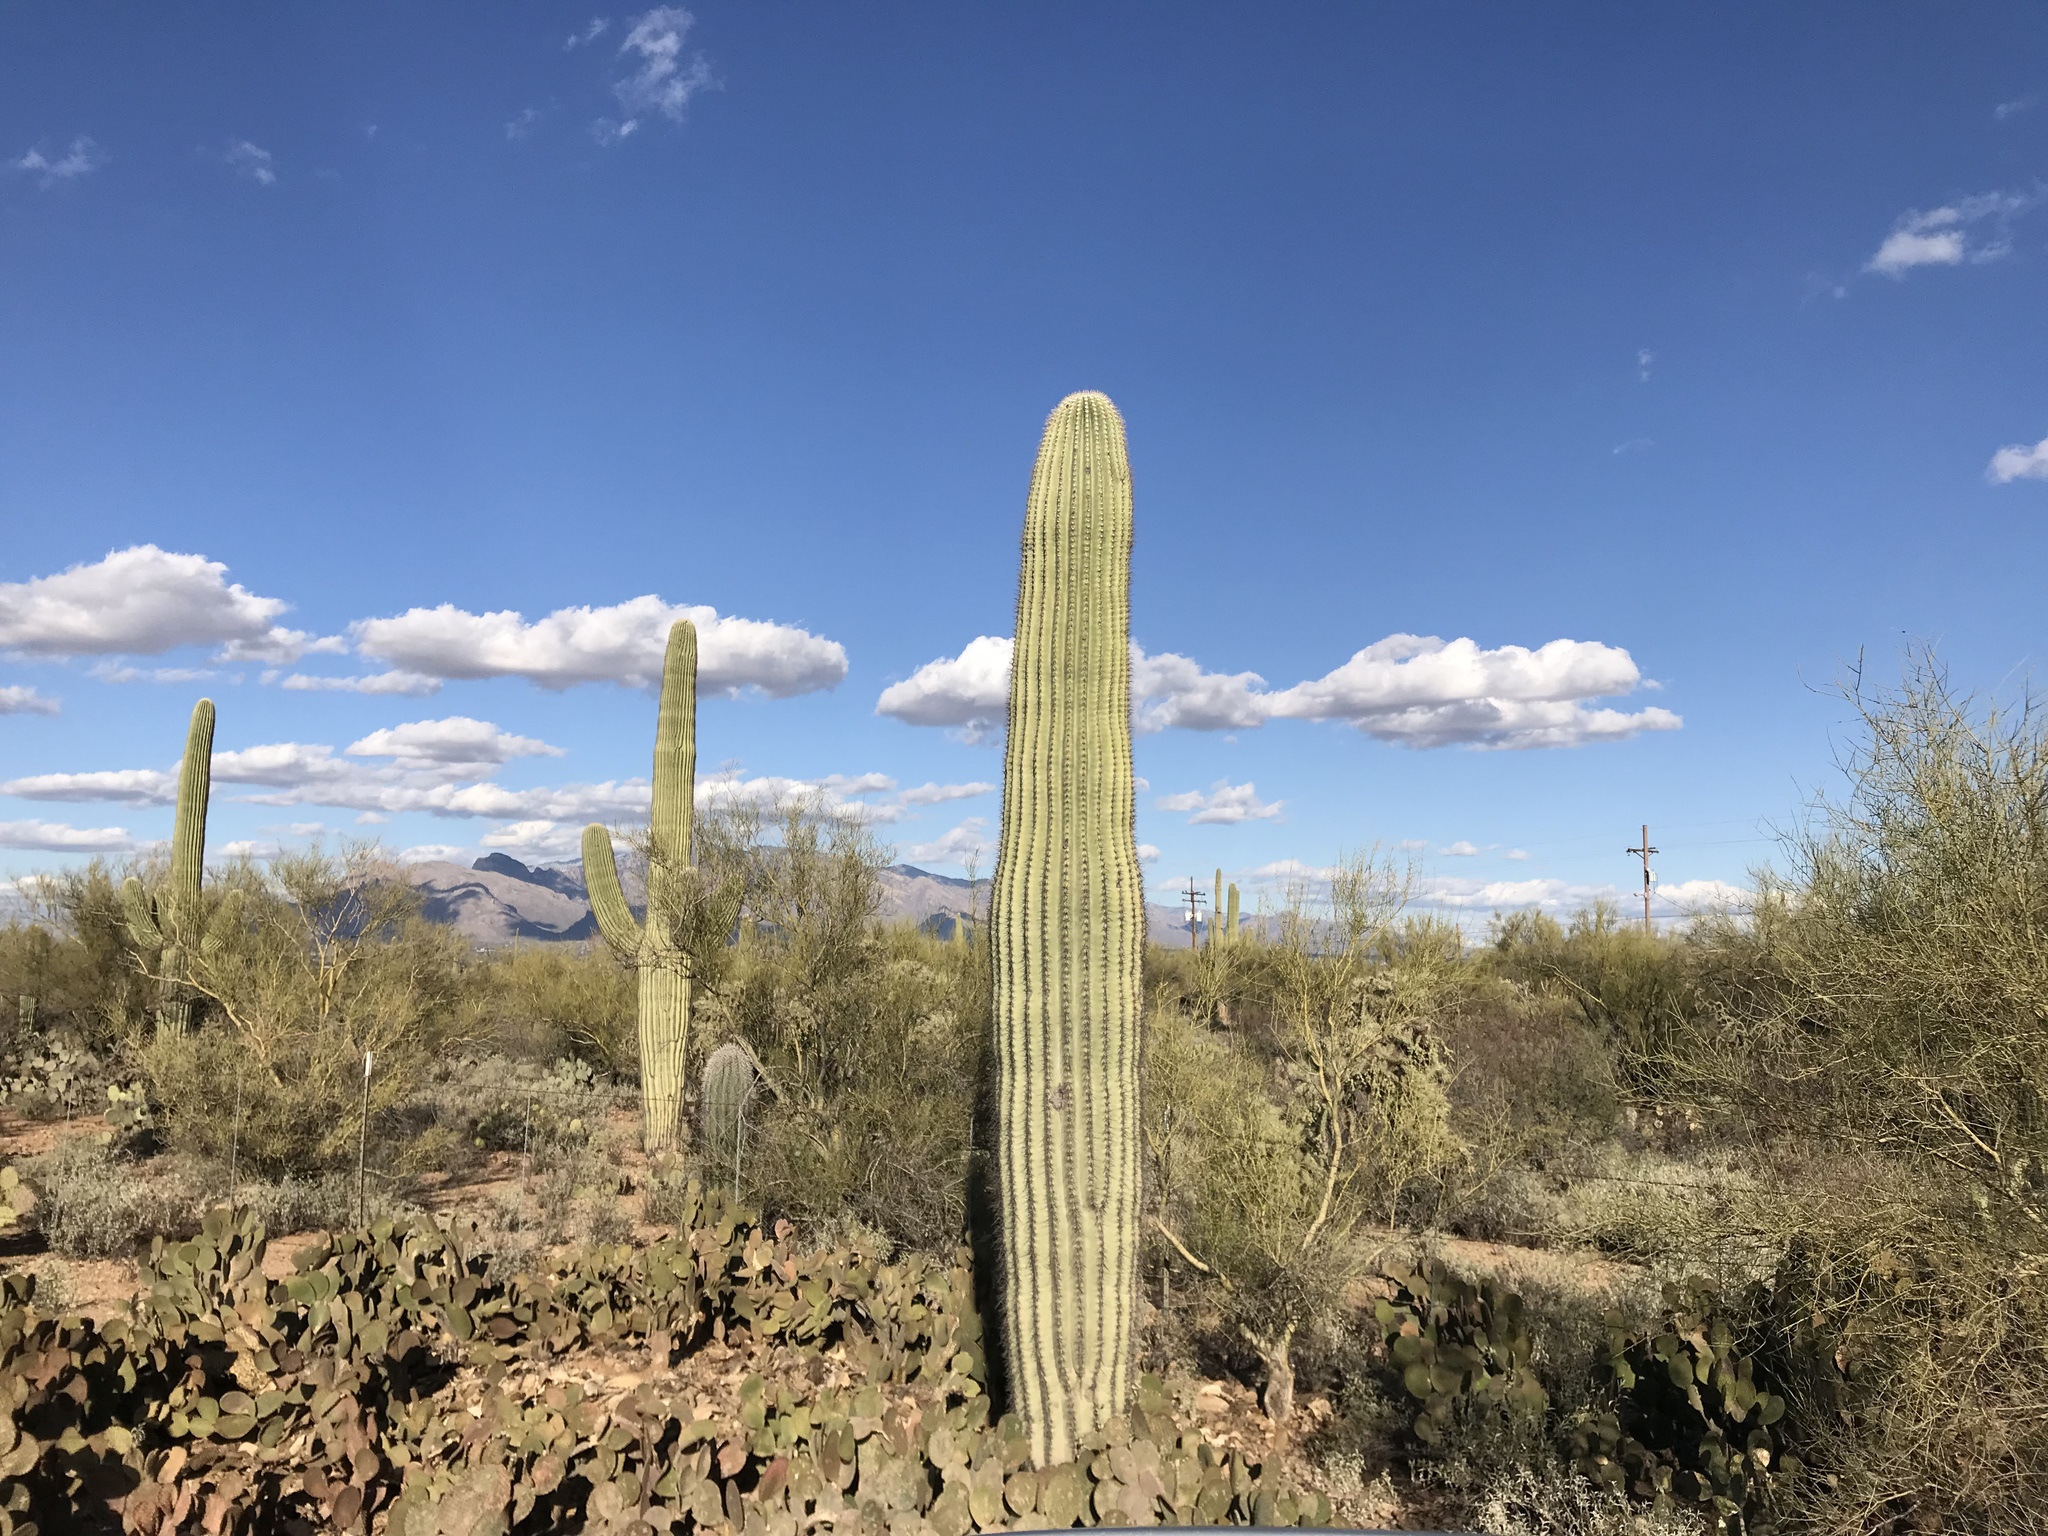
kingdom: Plantae
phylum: Tracheophyta
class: Magnoliopsida
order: Caryophyllales
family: Cactaceae
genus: Carnegiea
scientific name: Carnegiea gigantea
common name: Saguaro
